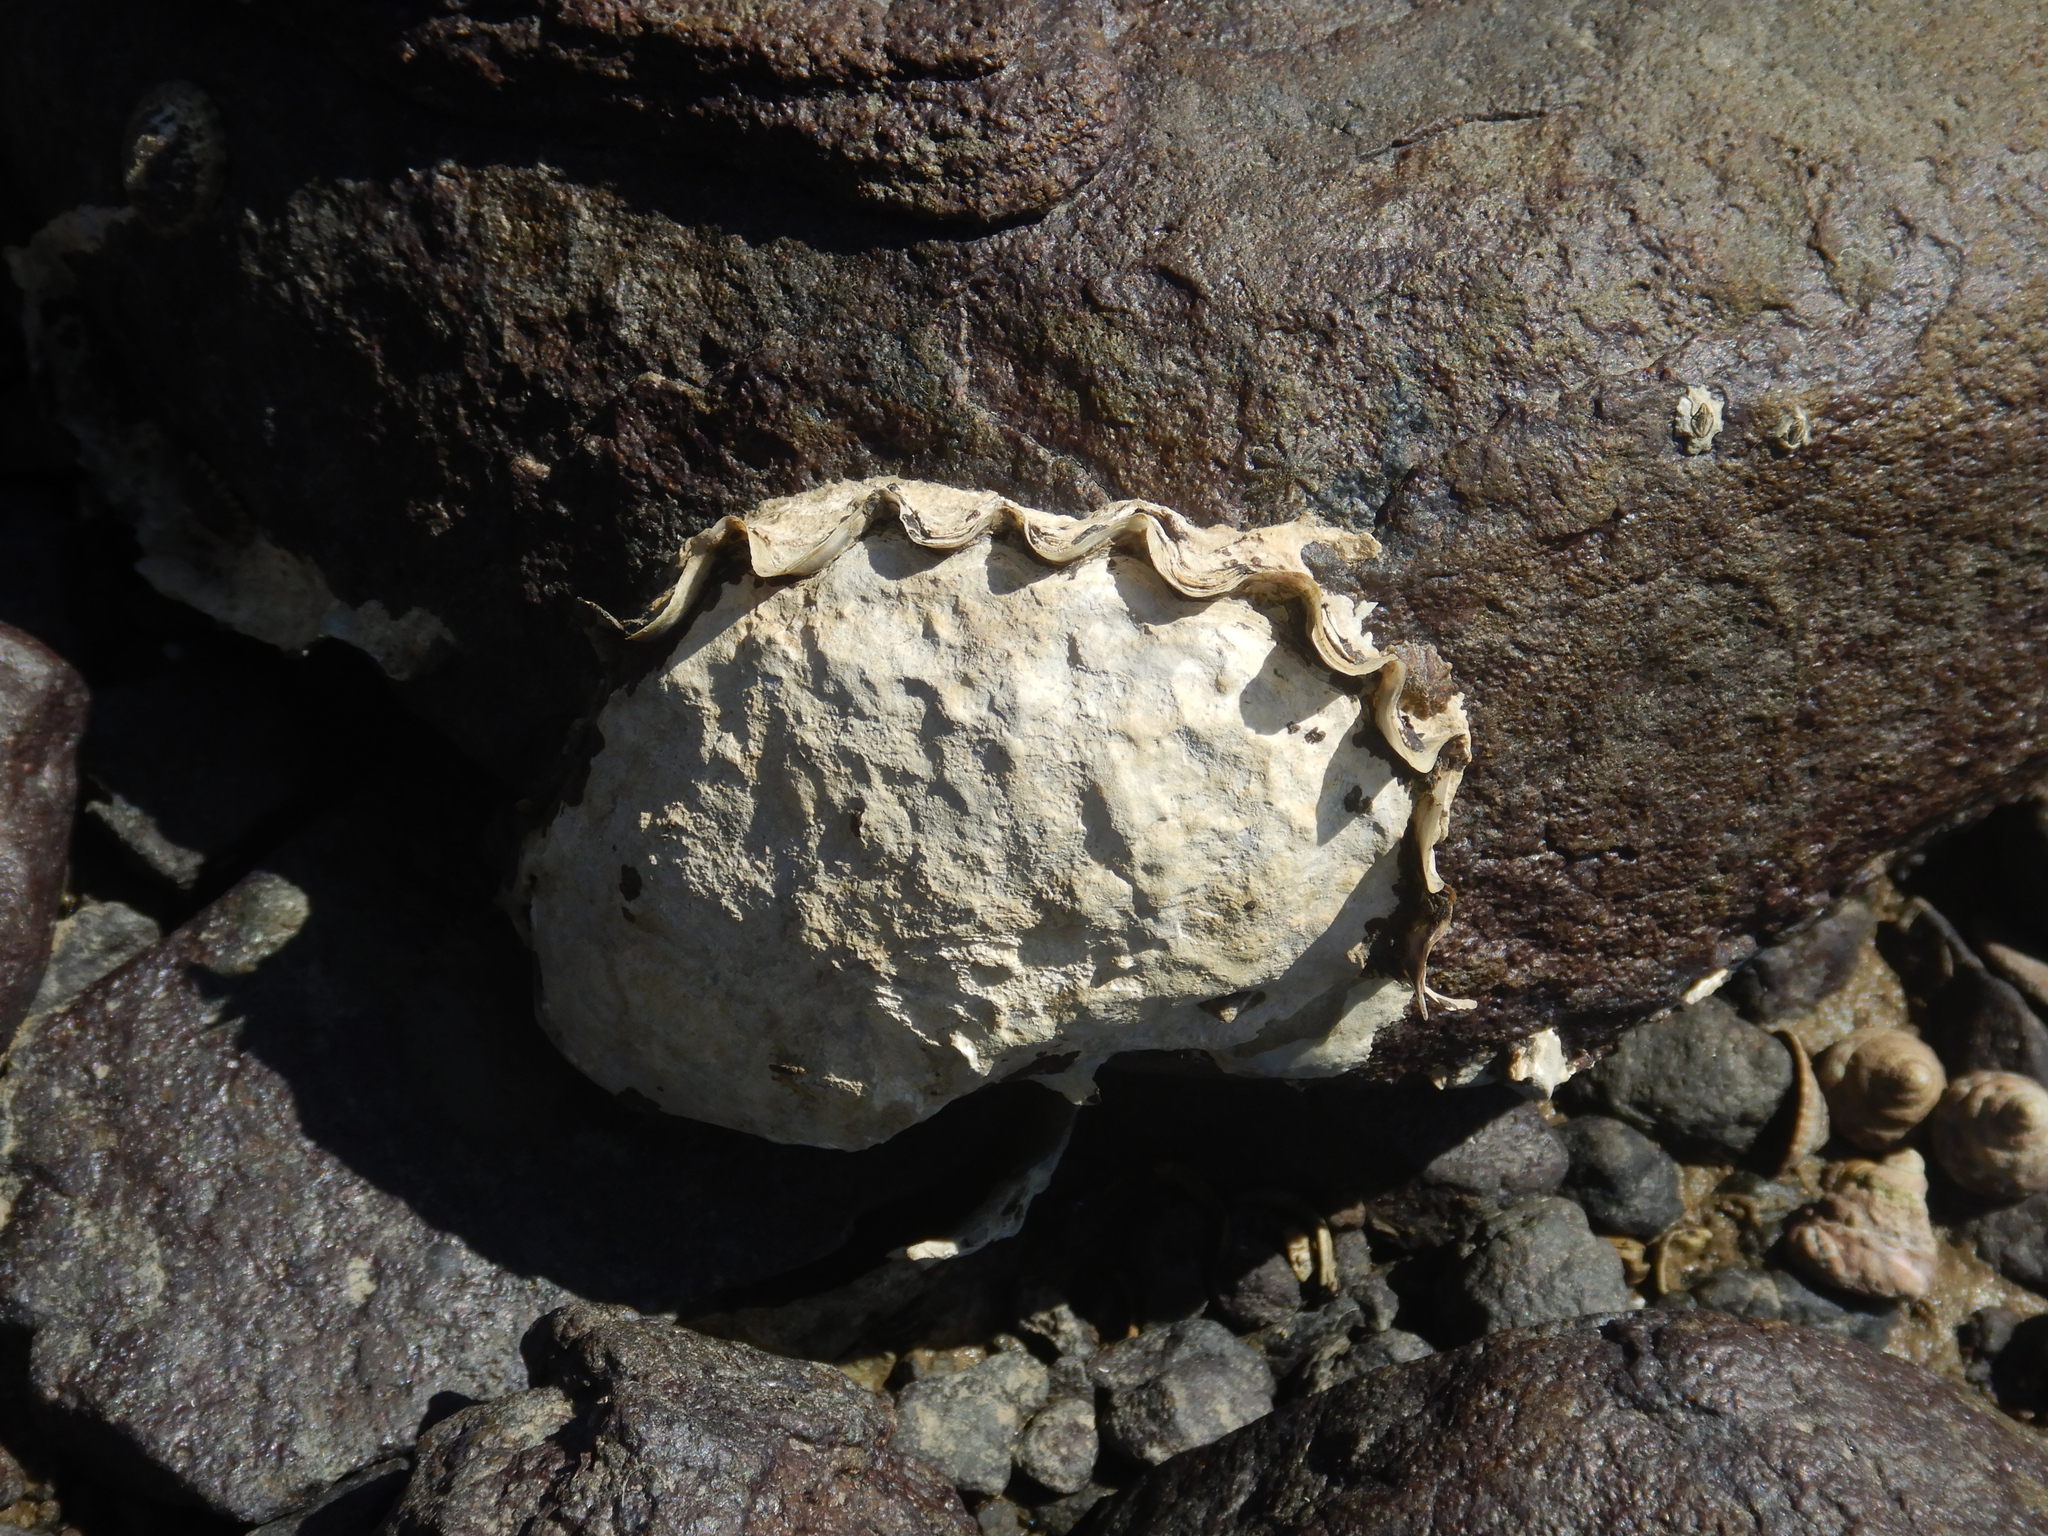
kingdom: Animalia
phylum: Mollusca
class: Bivalvia
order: Ostreida
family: Ostreidae
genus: Magallana
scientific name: Magallana gigas
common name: Pacific oyster
